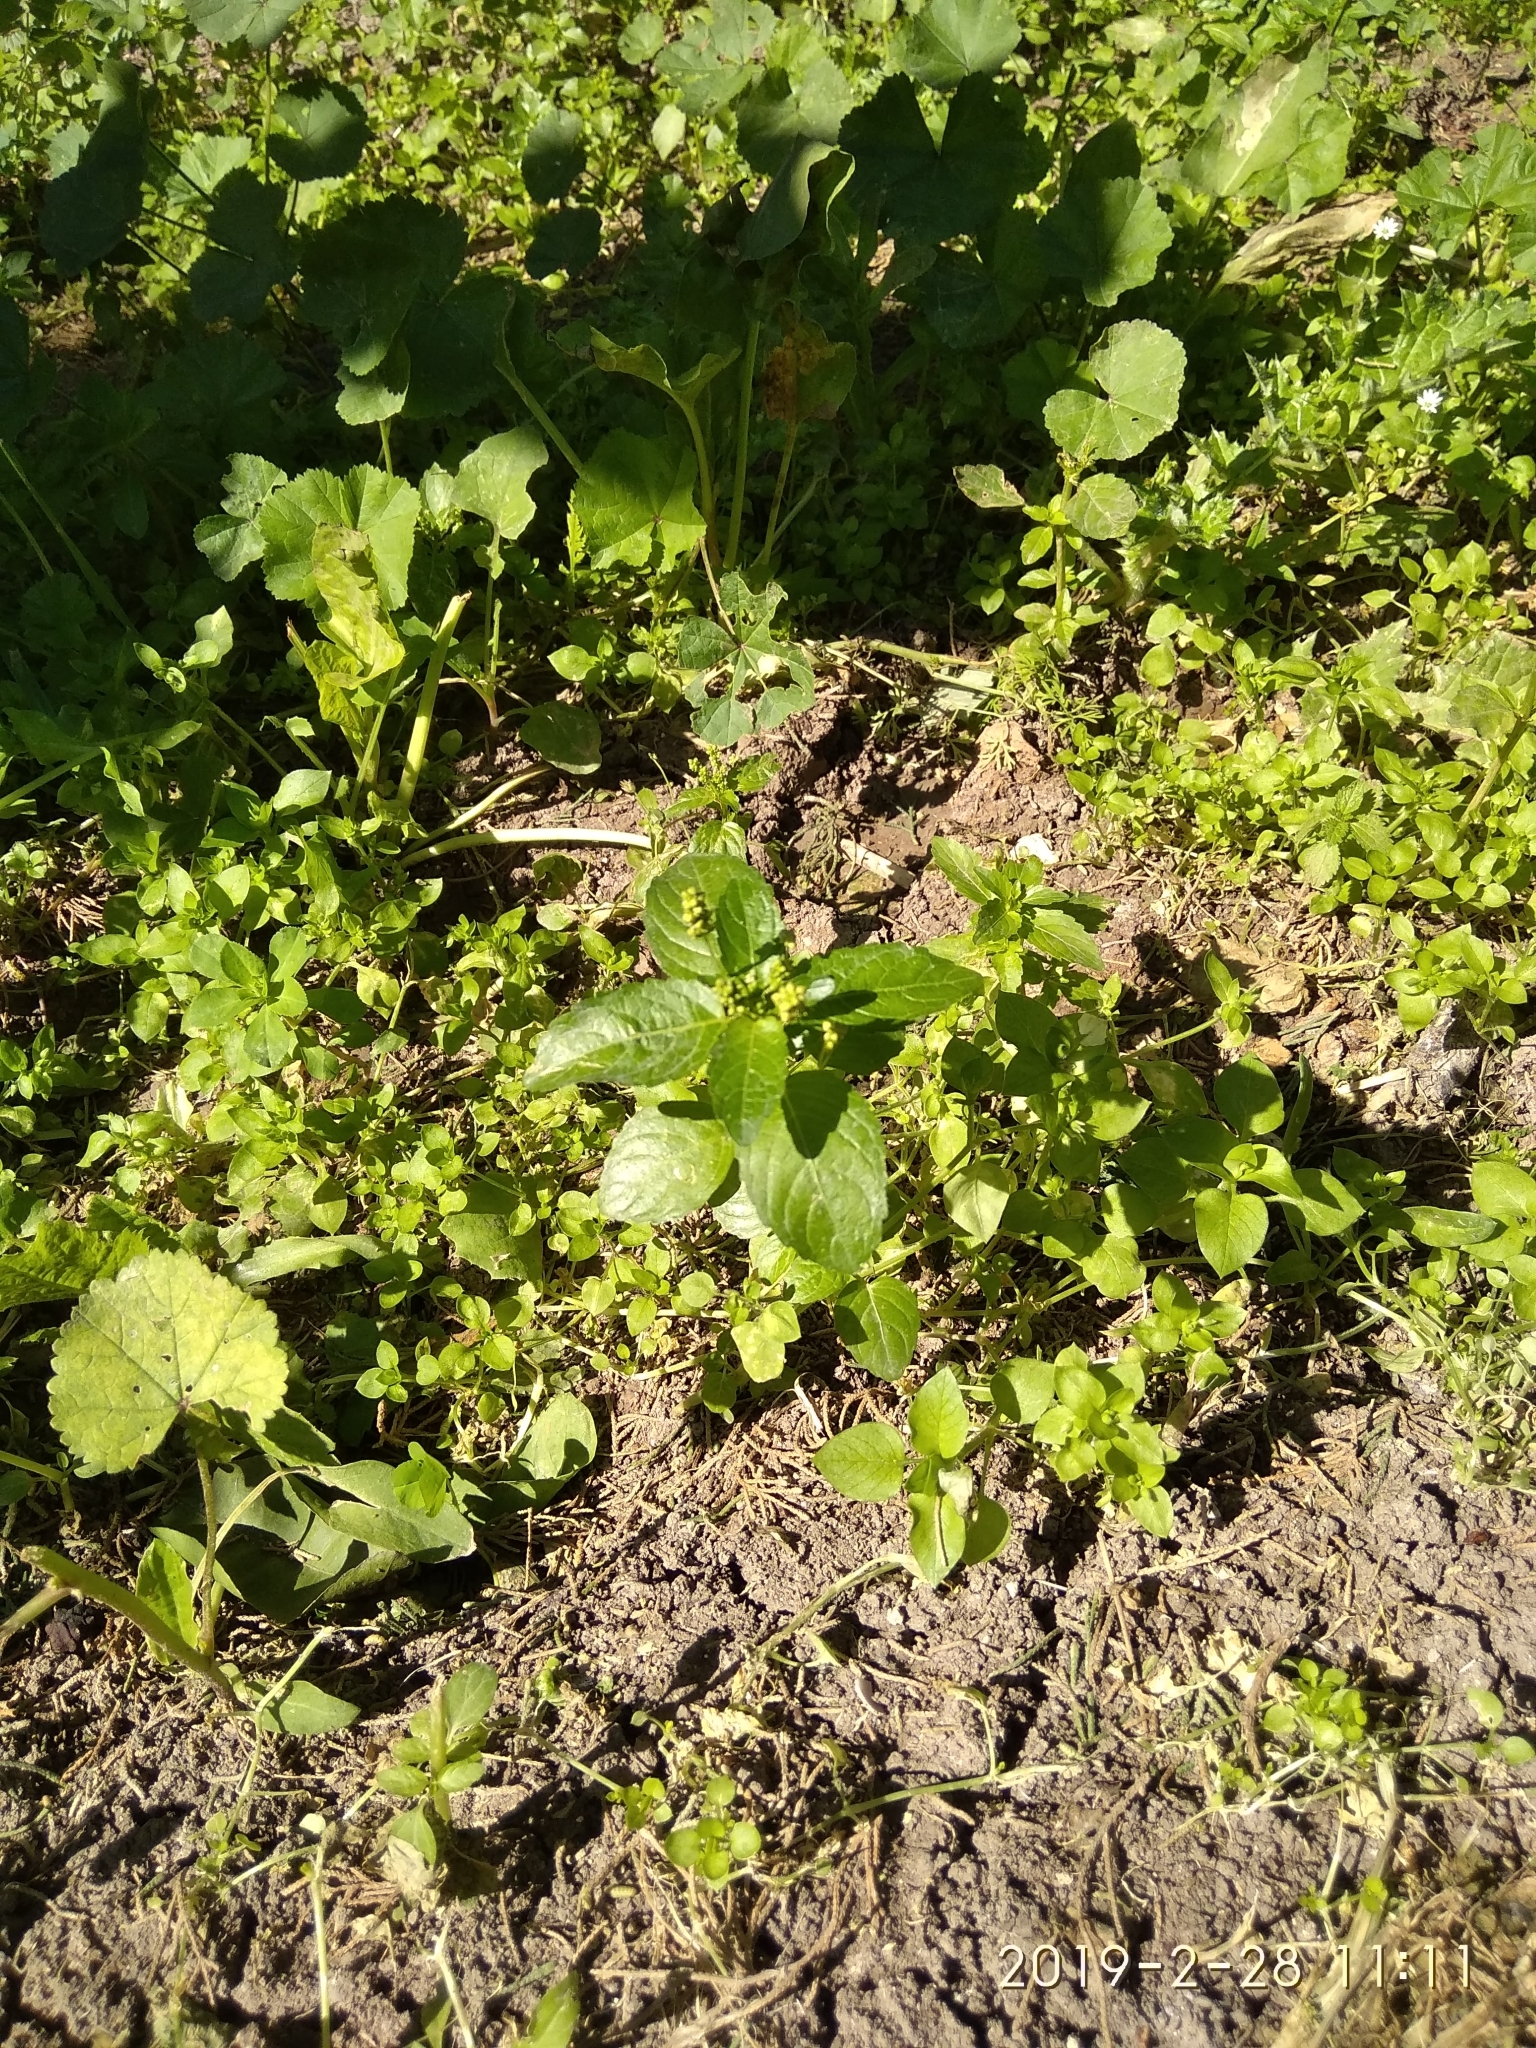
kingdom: Plantae
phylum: Tracheophyta
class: Magnoliopsida
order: Malpighiales
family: Euphorbiaceae
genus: Mercurialis
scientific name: Mercurialis annua
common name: Annual mercury
